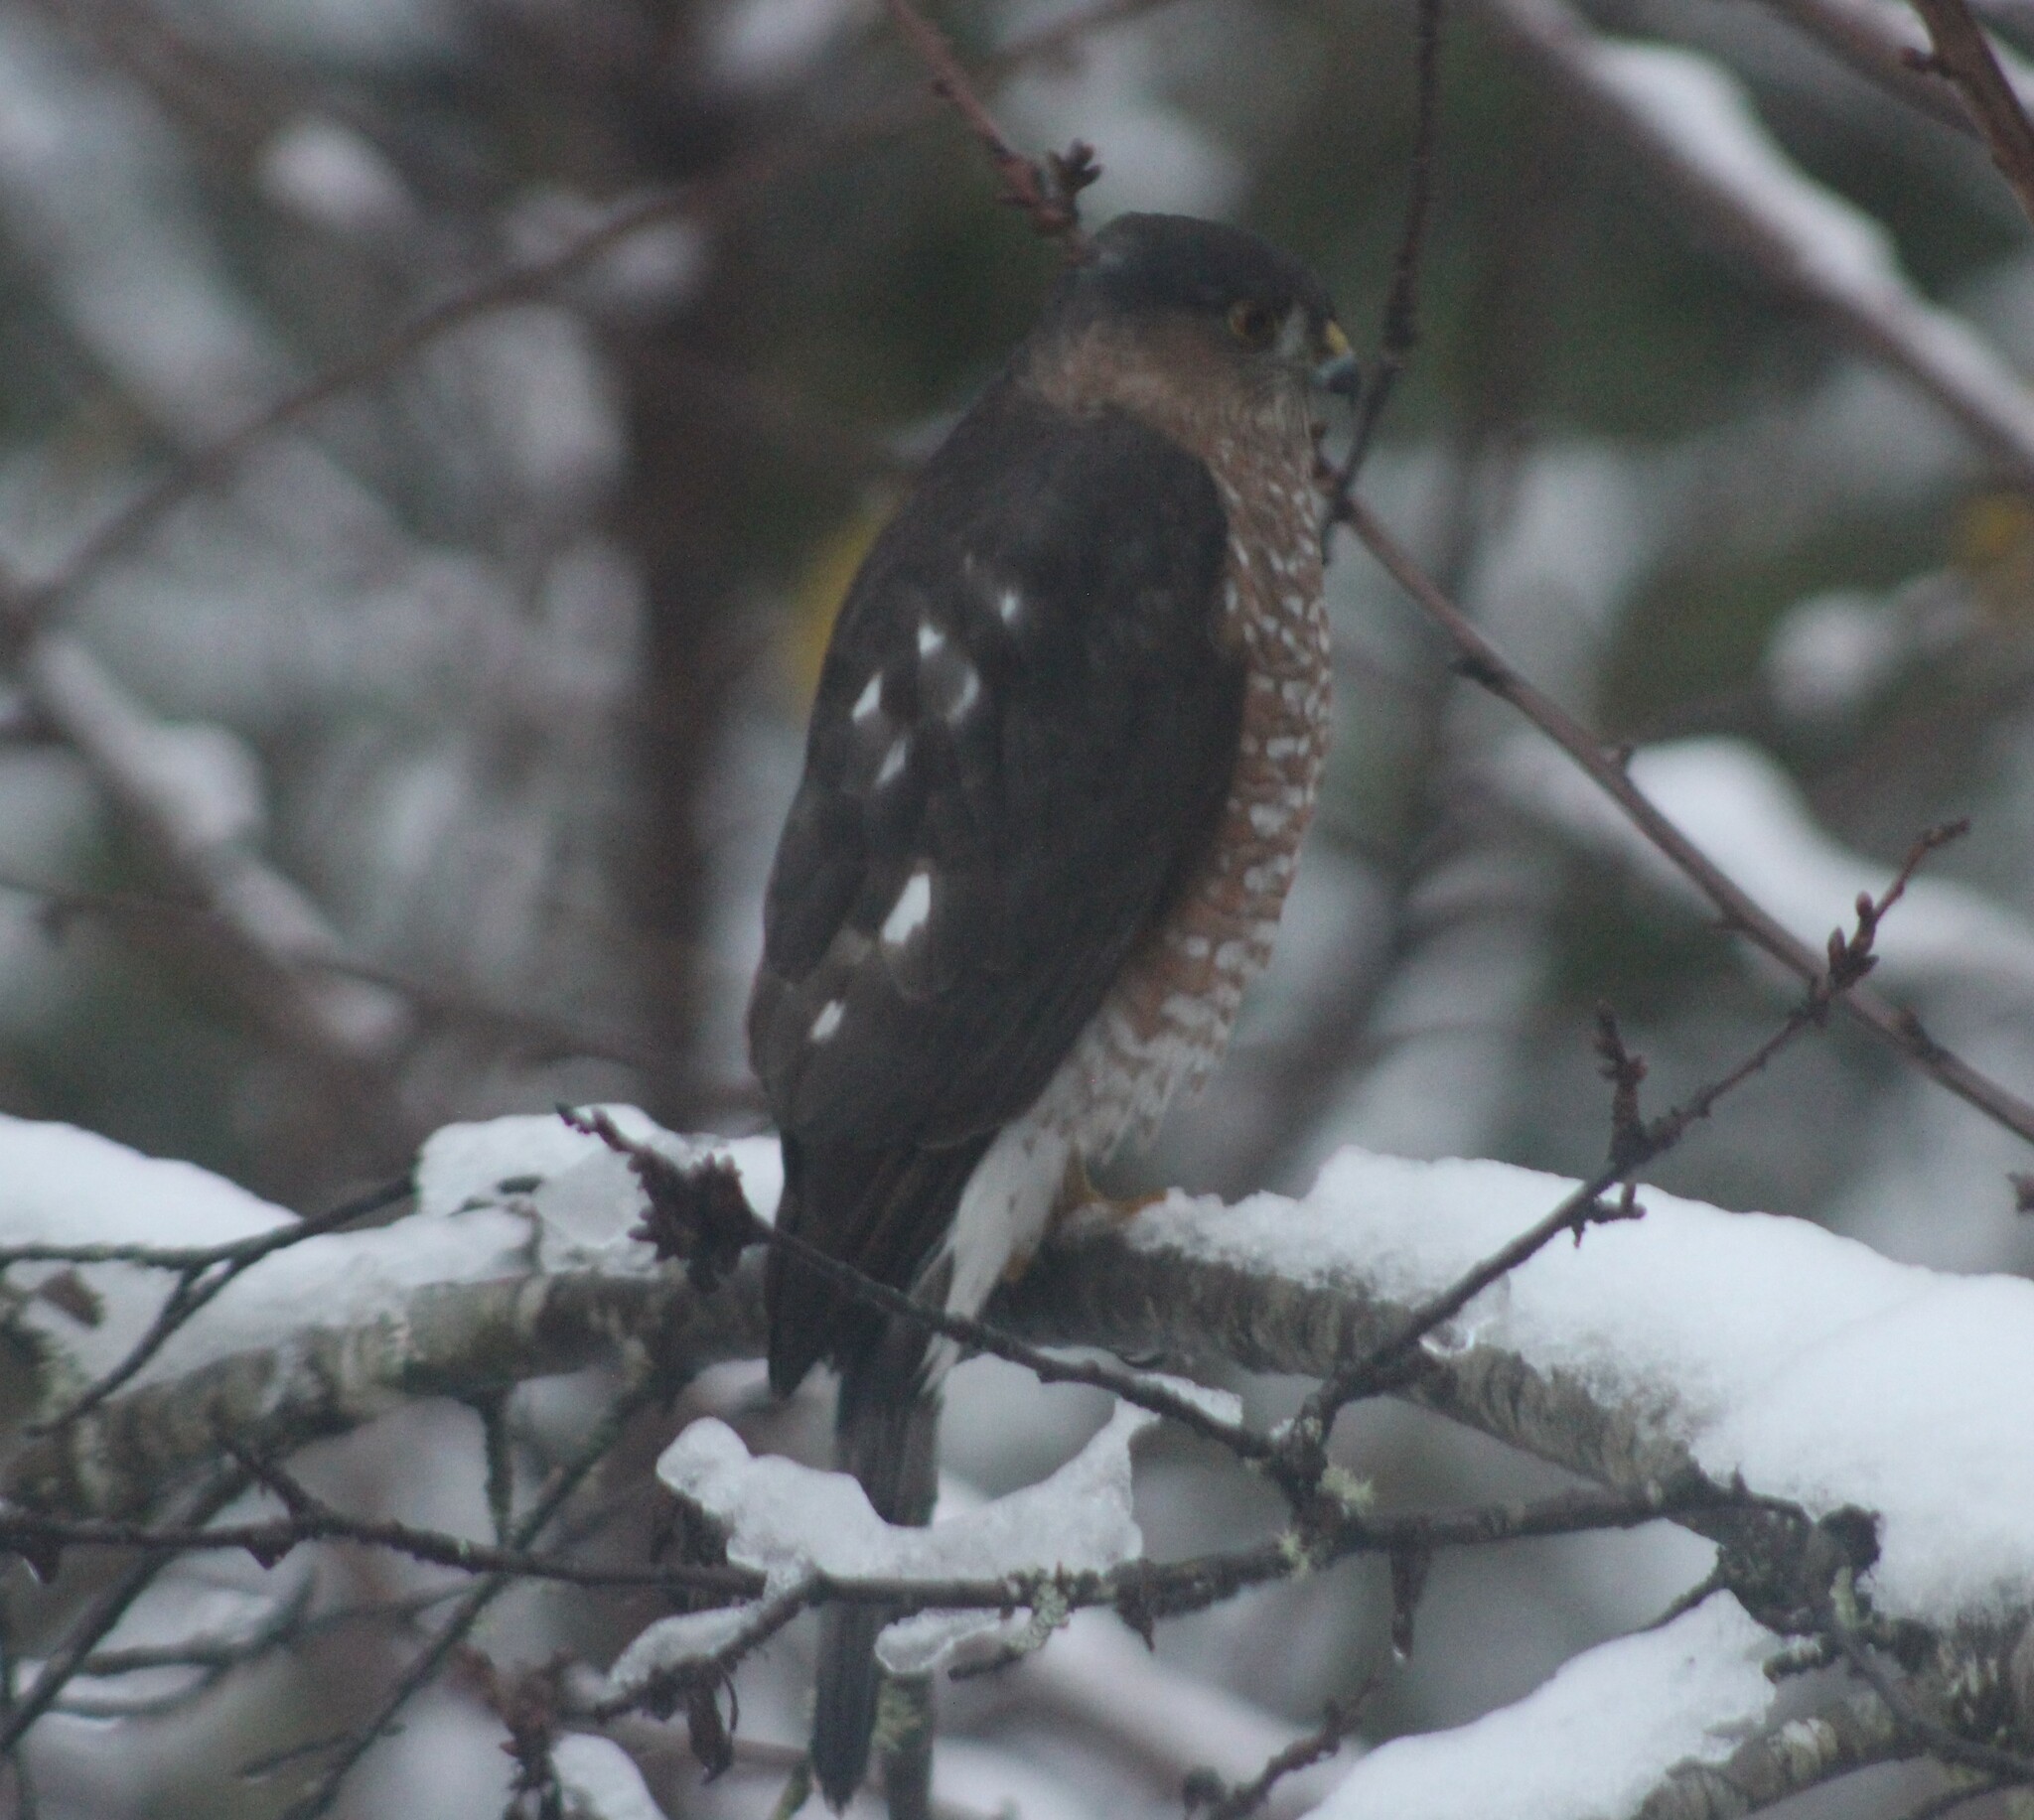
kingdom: Animalia
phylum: Chordata
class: Aves
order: Accipitriformes
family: Accipitridae
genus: Accipiter
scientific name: Accipiter striatus
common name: Sharp-shinned hawk
